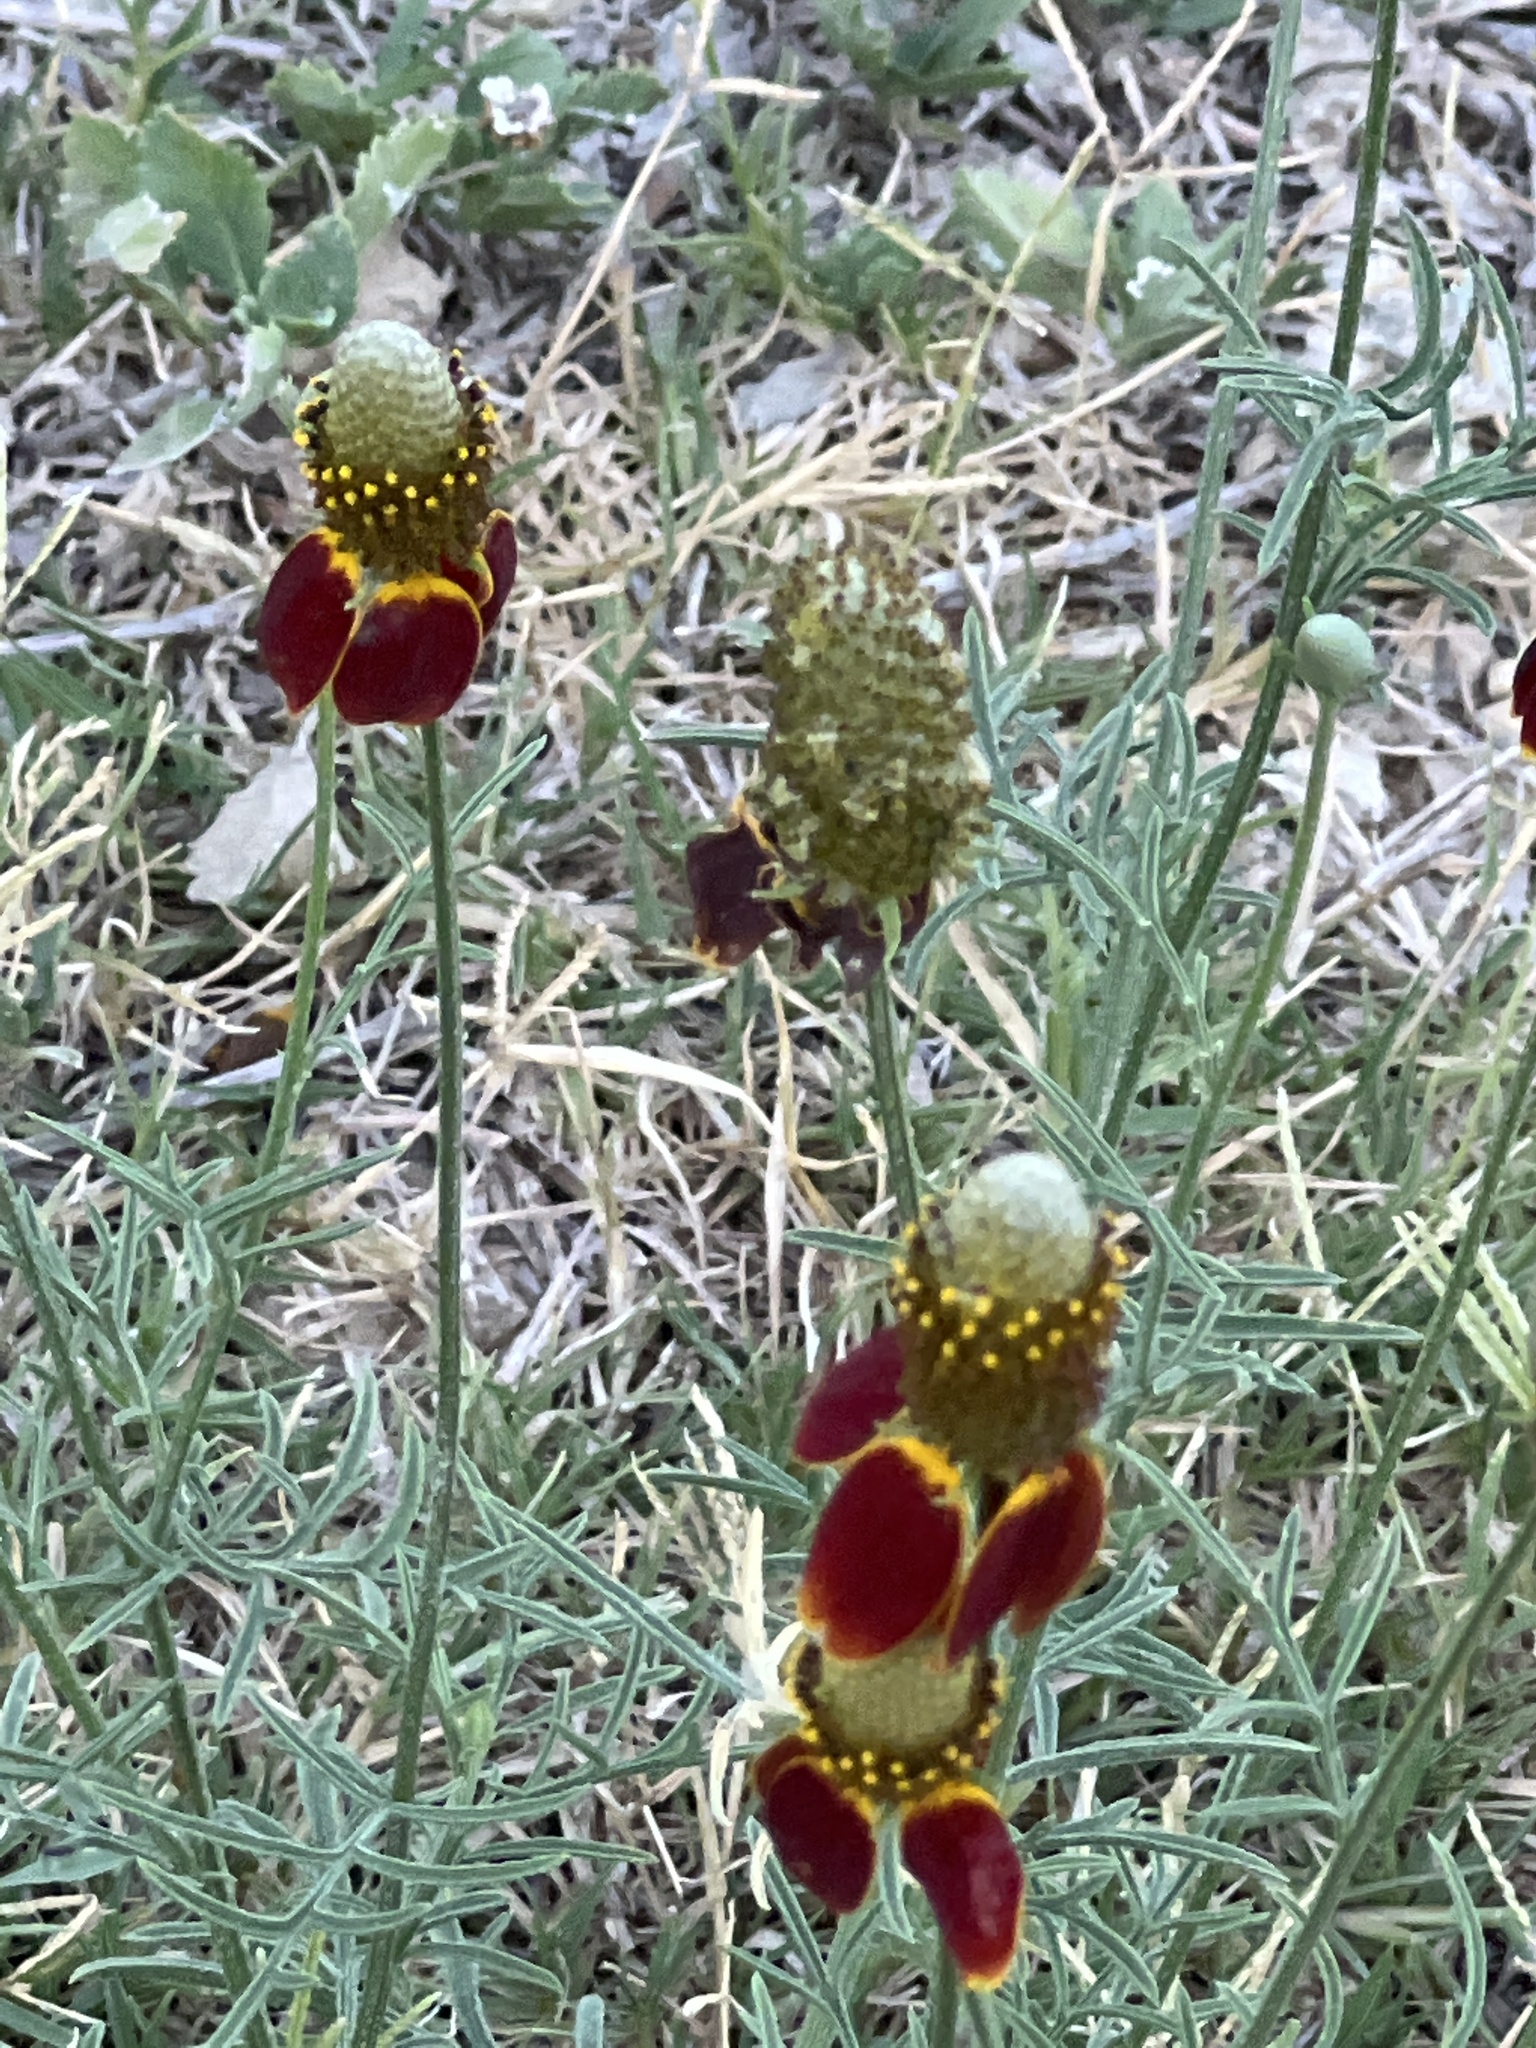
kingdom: Plantae
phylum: Tracheophyta
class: Magnoliopsida
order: Asterales
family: Asteraceae
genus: Ratibida
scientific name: Ratibida columnifera
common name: Prairie coneflower
